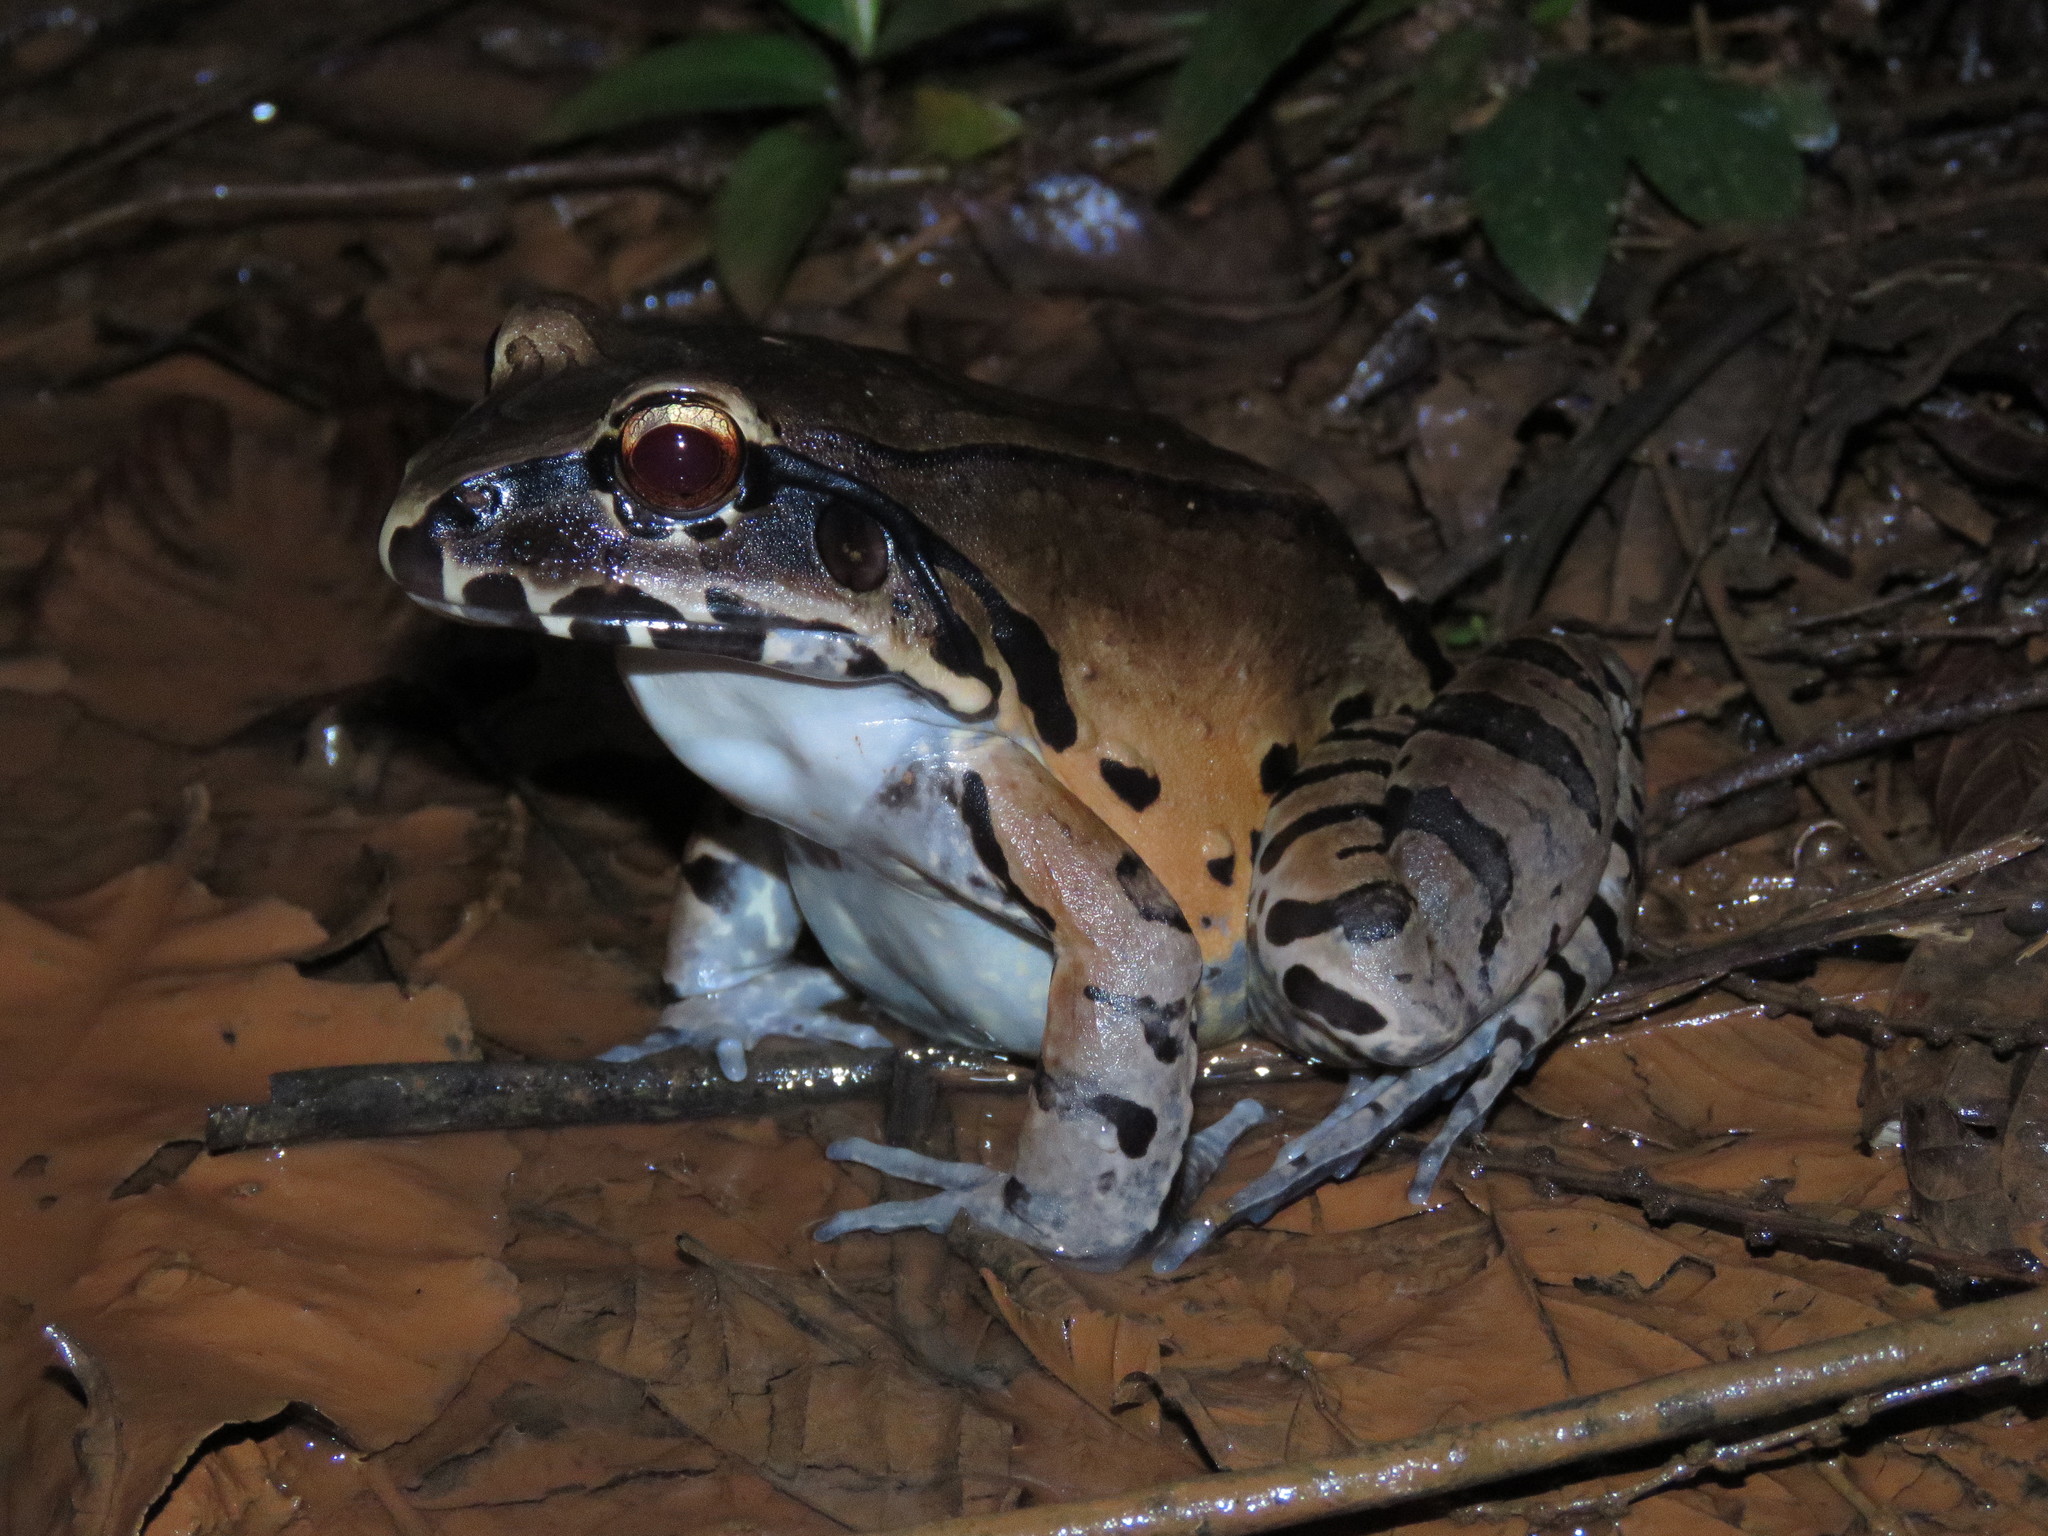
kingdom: Animalia
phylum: Chordata
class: Amphibia
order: Anura
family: Leptodactylidae
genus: Leptodactylus
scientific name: Leptodactylus pentadactylus
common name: Smoky jungle frog
